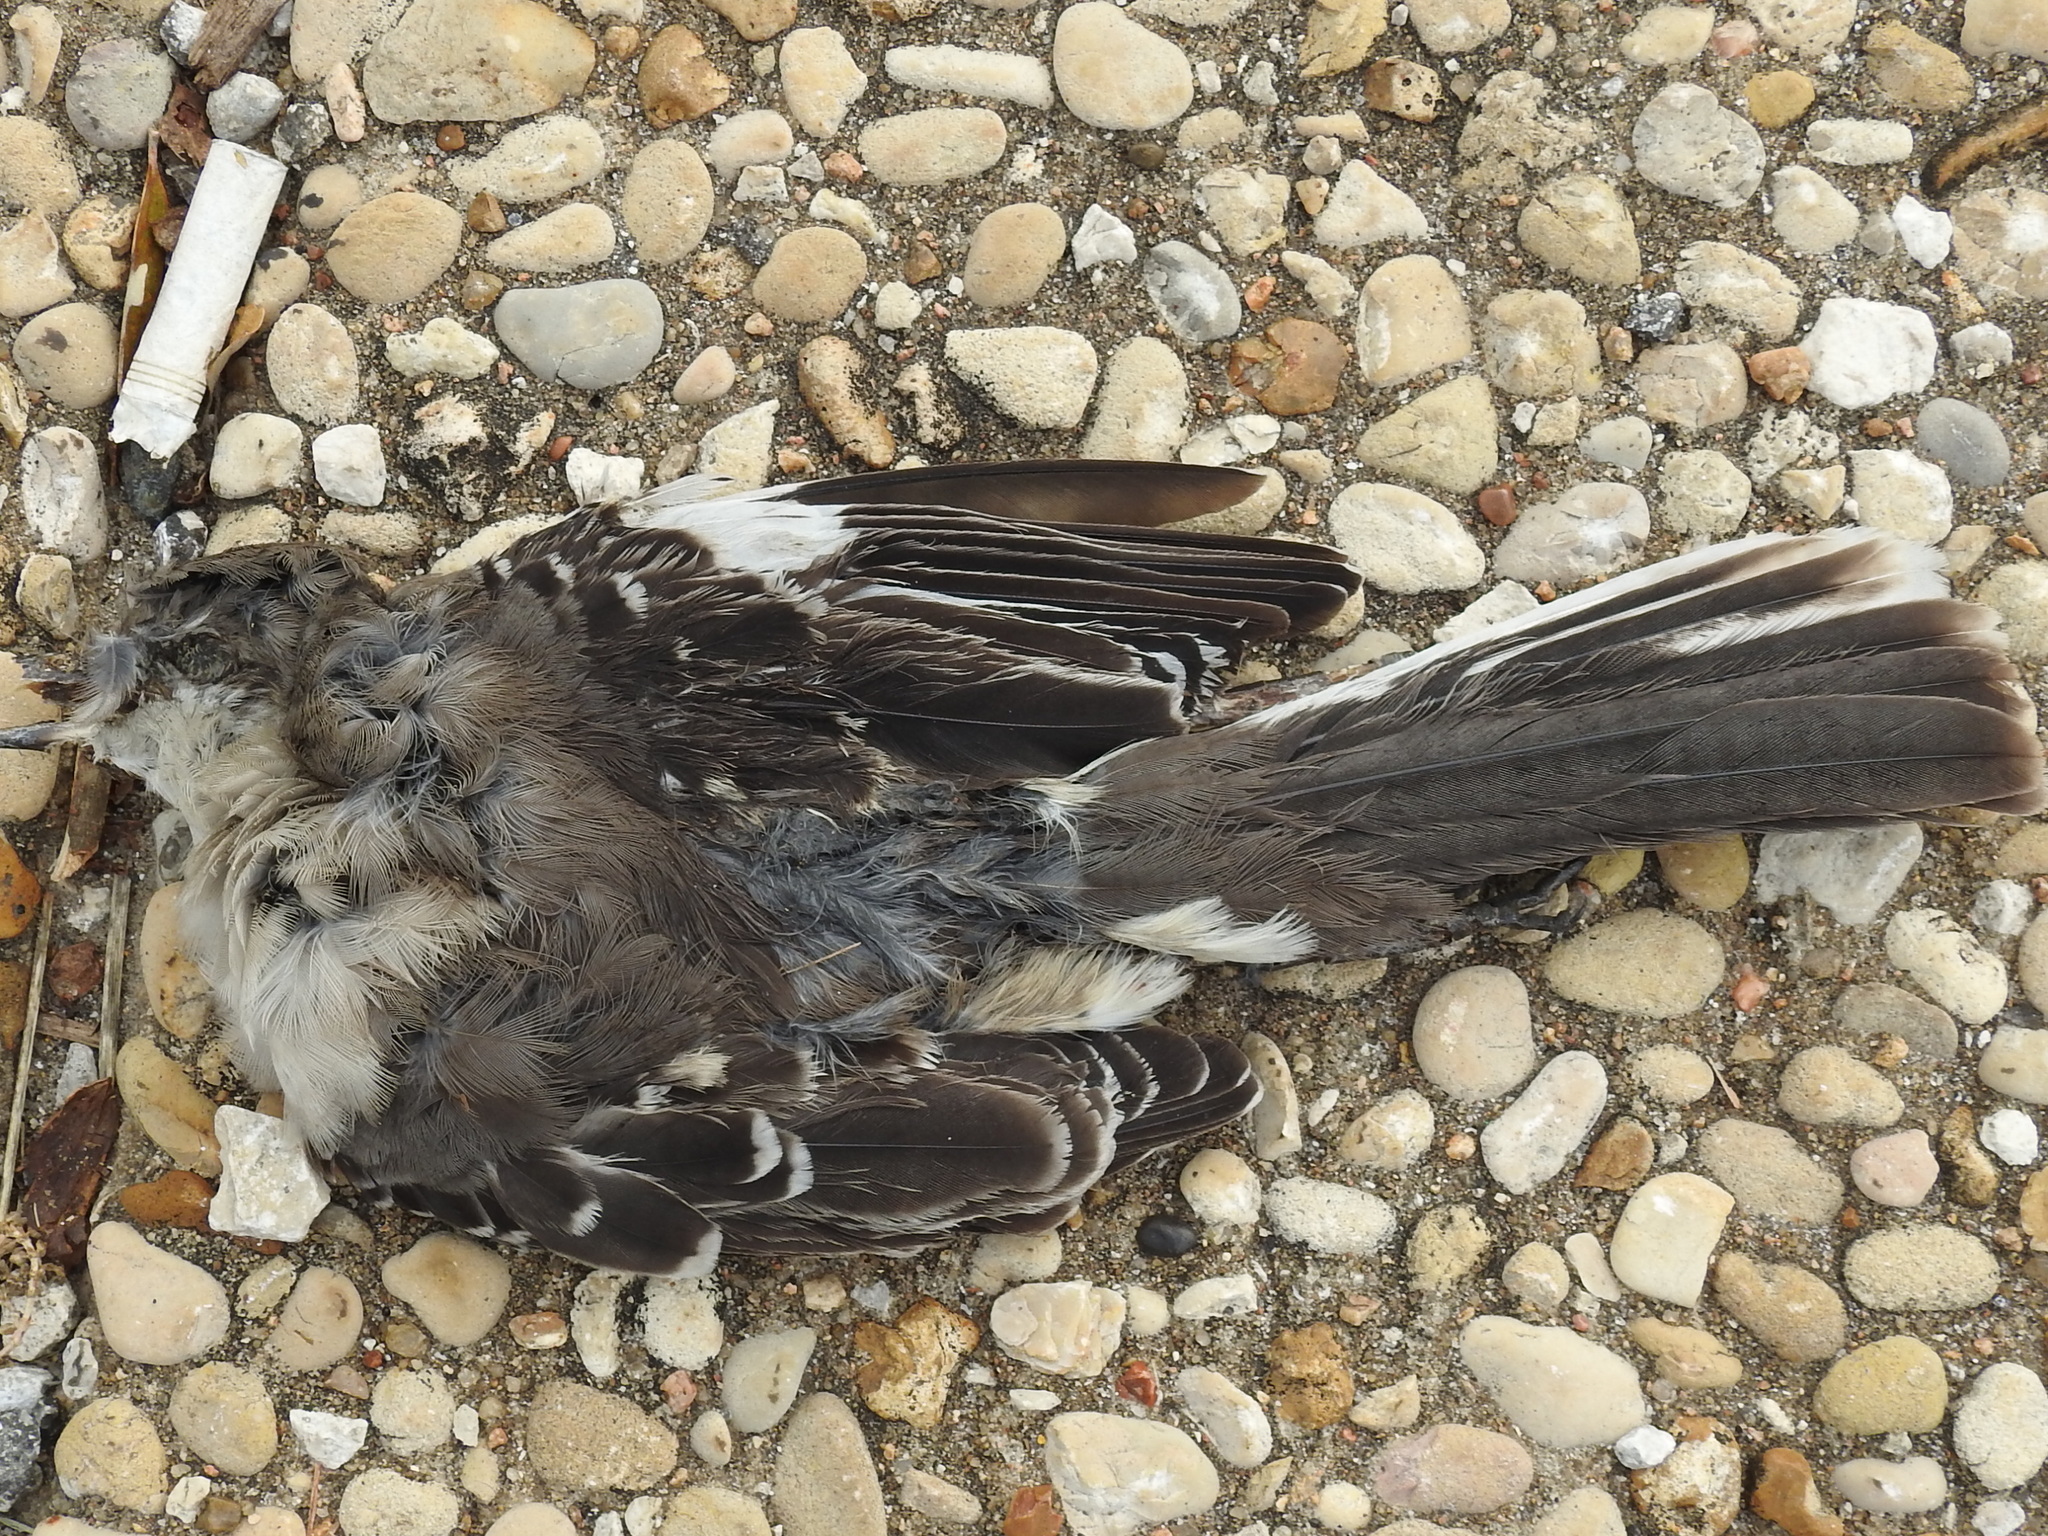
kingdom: Animalia
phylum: Chordata
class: Aves
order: Passeriformes
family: Mimidae
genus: Mimus
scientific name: Mimus polyglottos
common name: Northern mockingbird
